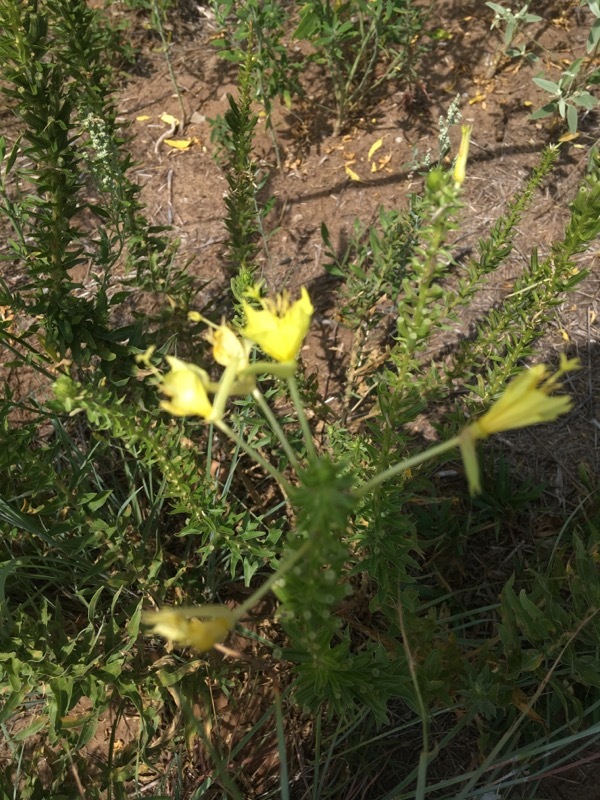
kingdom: Plantae
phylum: Tracheophyta
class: Magnoliopsida
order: Myrtales
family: Onagraceae
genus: Oenothera
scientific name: Oenothera rhombipetala
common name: Four-points evening-primrose
